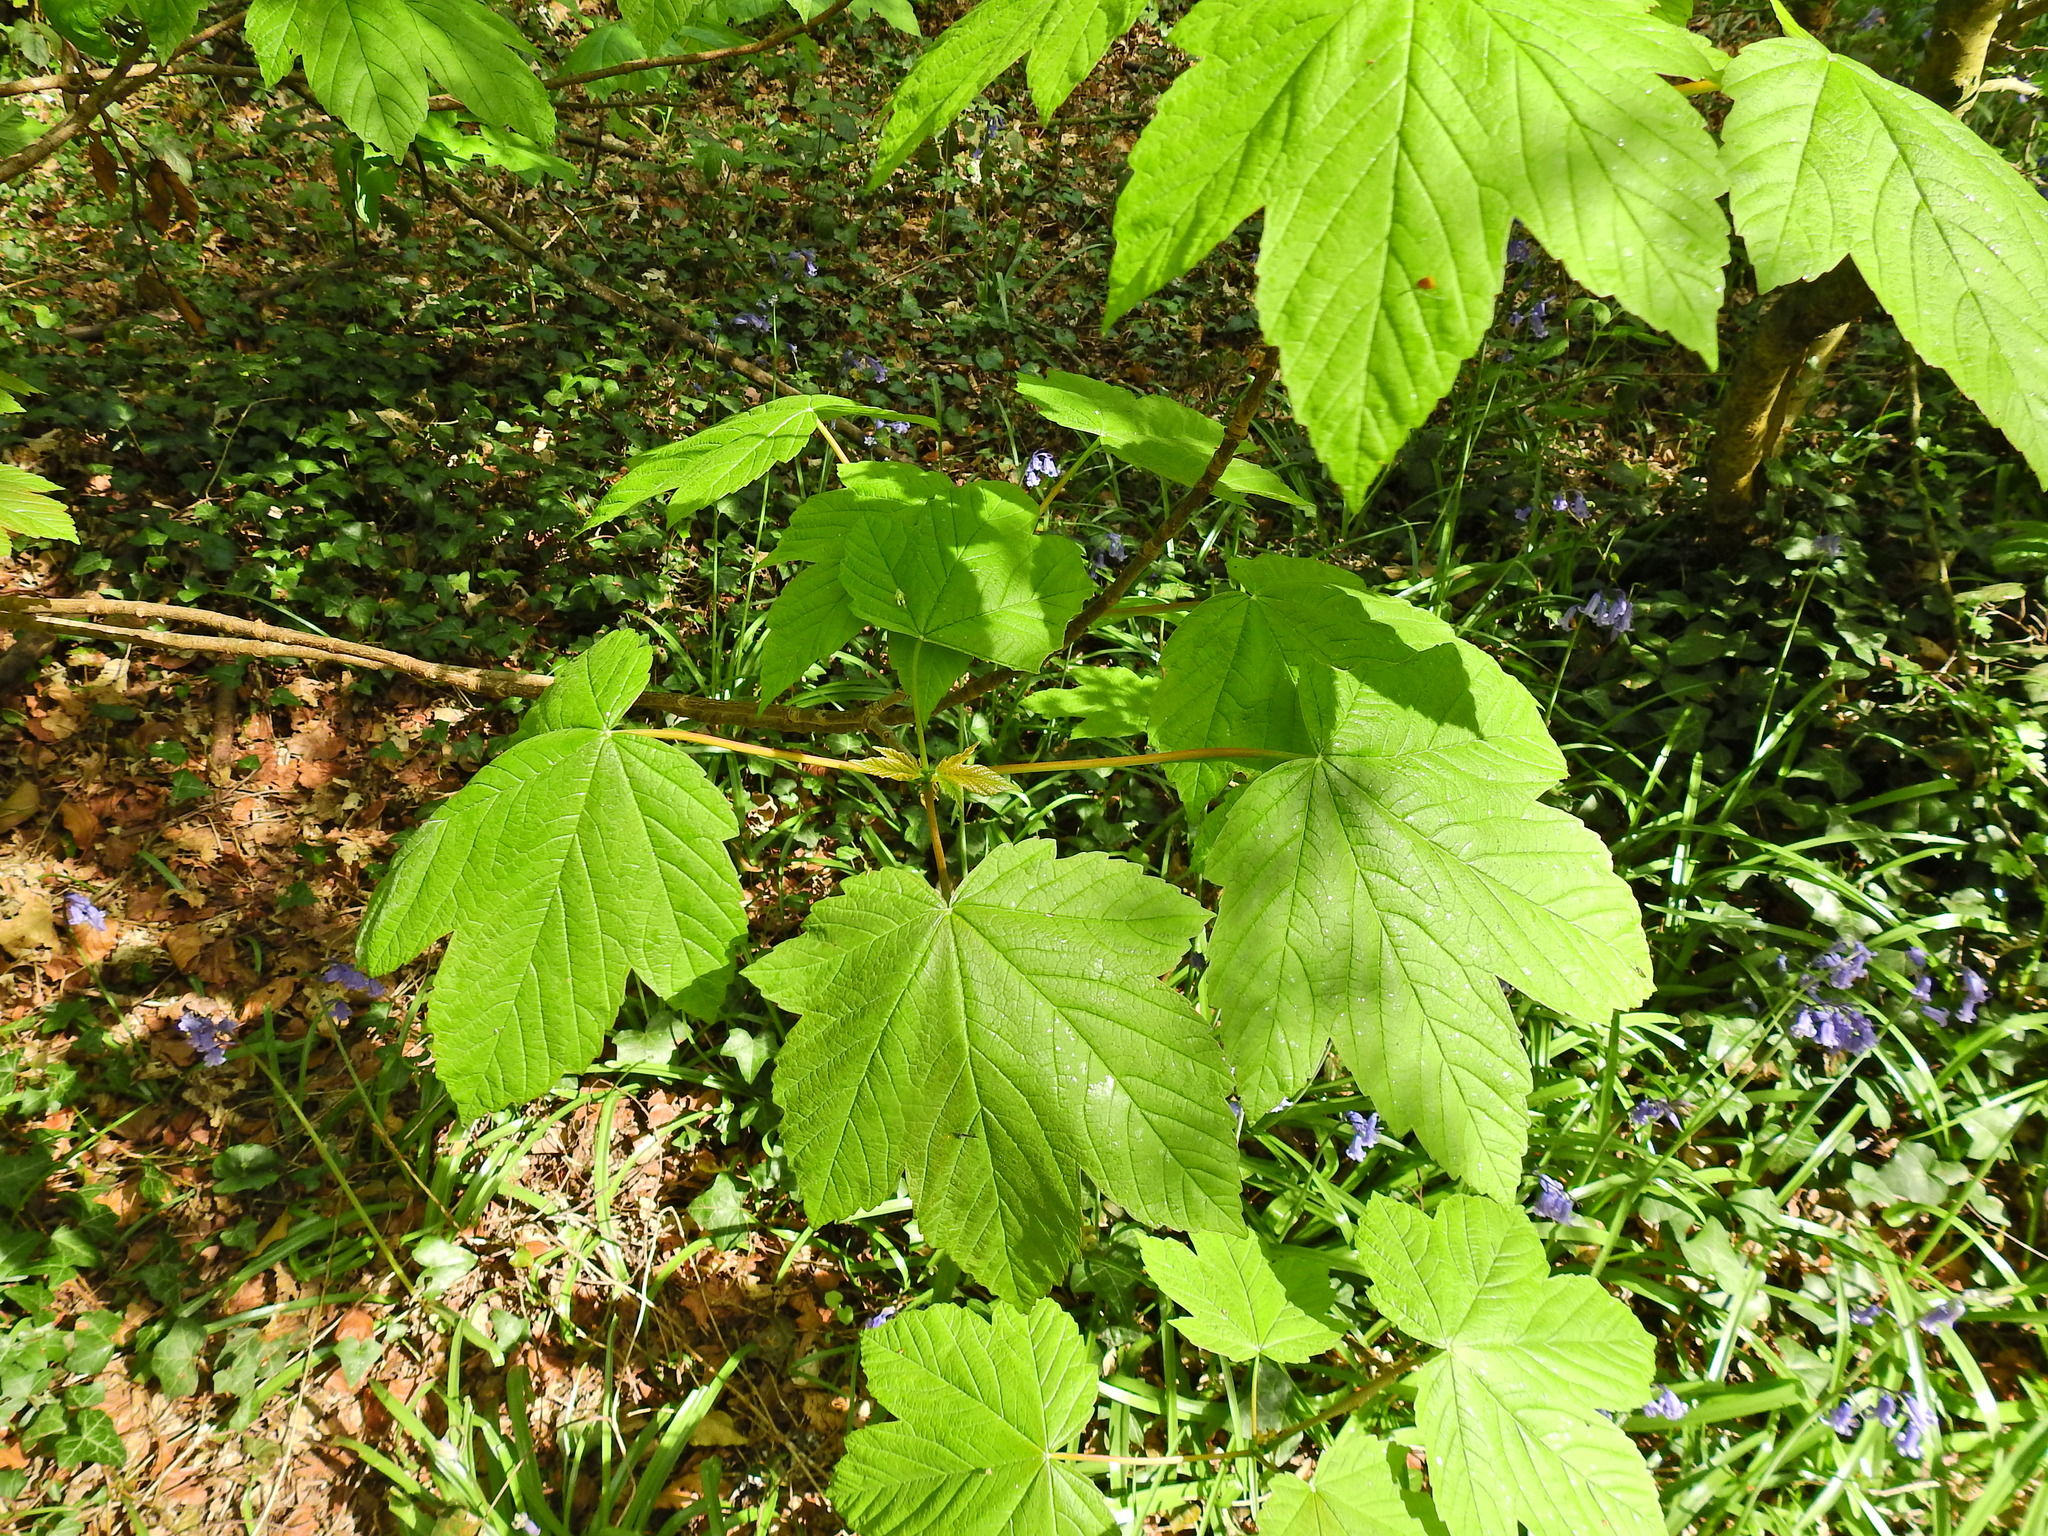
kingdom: Plantae
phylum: Tracheophyta
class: Magnoliopsida
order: Sapindales
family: Sapindaceae
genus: Acer
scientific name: Acer pseudoplatanus
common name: Sycamore
